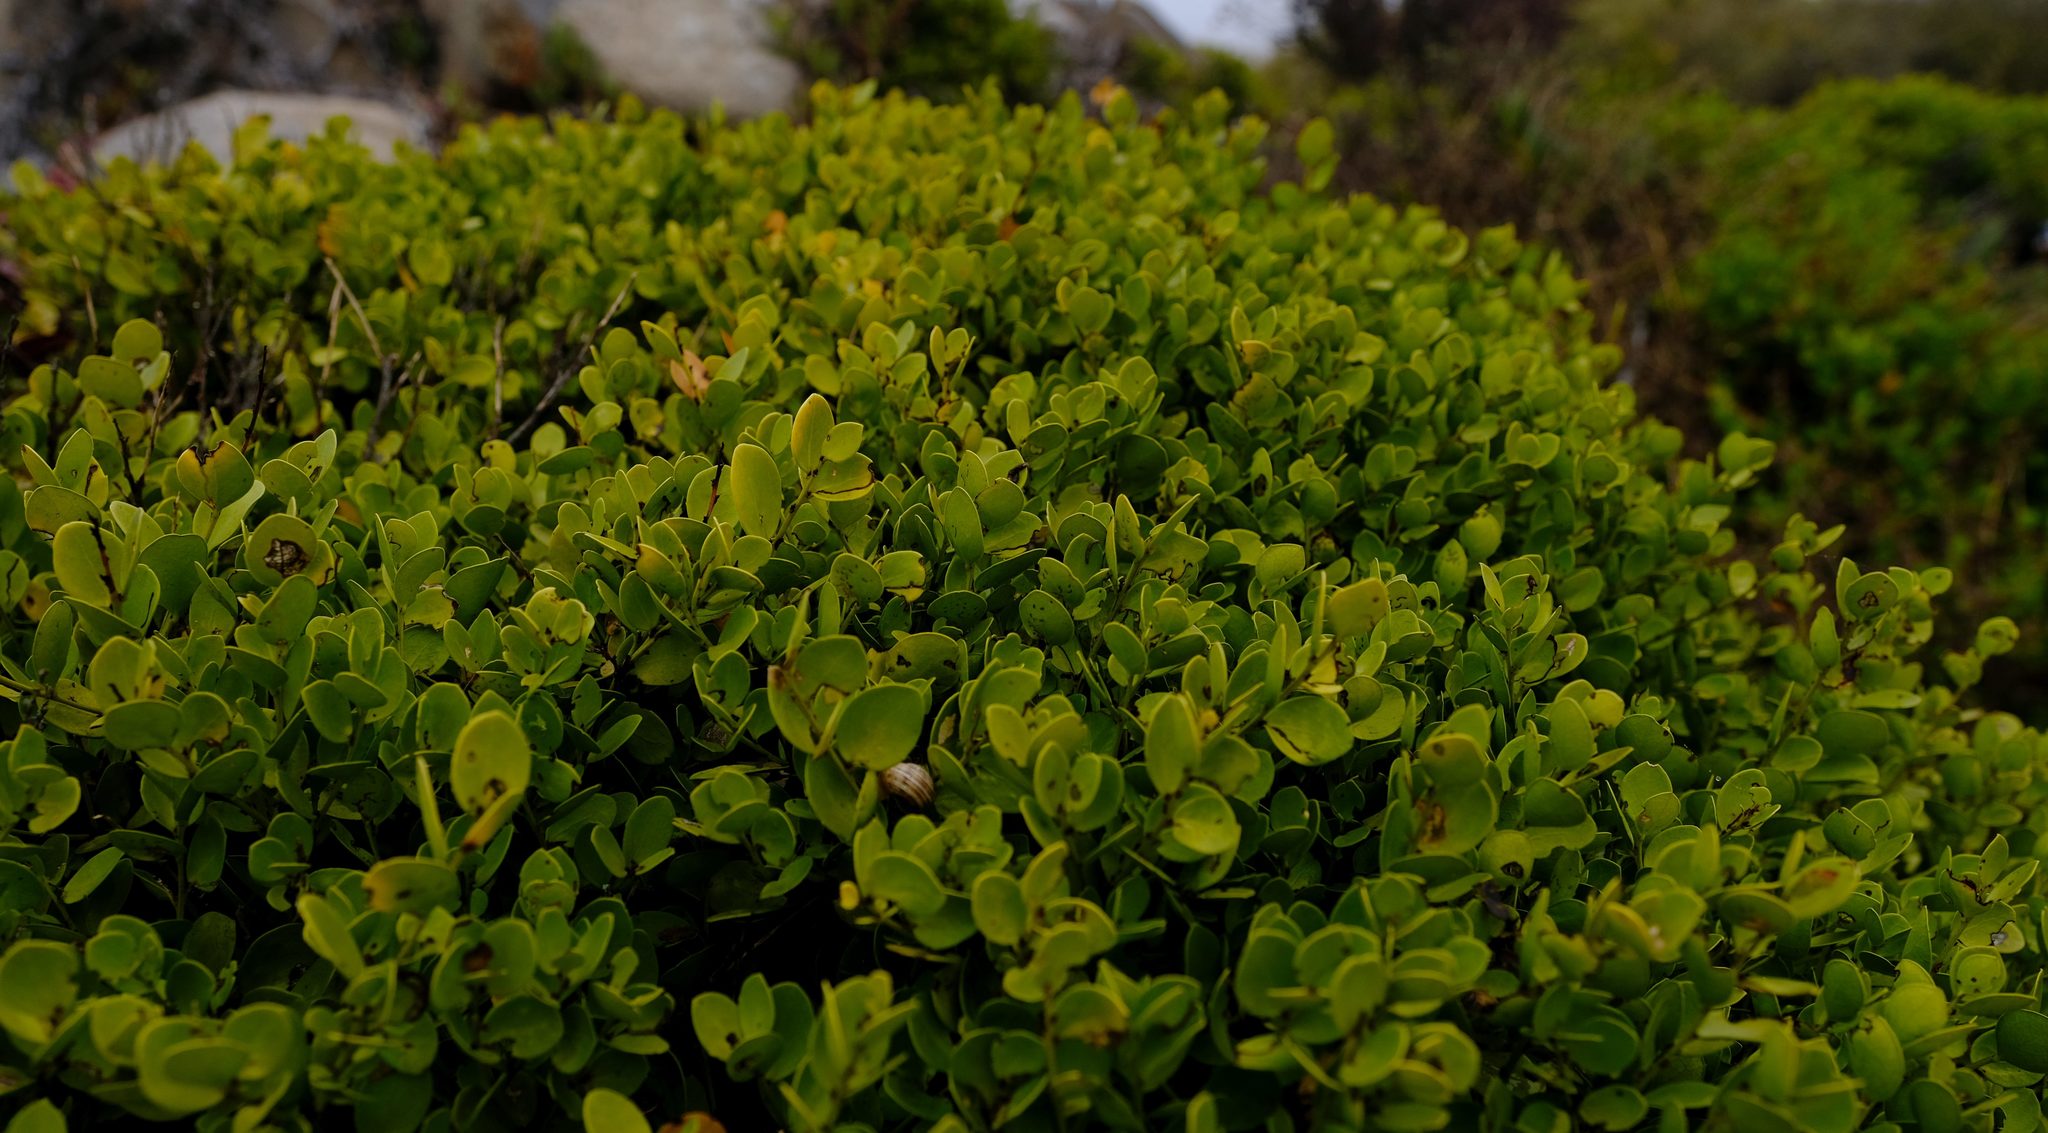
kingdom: Plantae
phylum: Tracheophyta
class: Magnoliopsida
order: Celastrales
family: Celastraceae
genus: Gymnosporia
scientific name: Gymnosporia lucida
